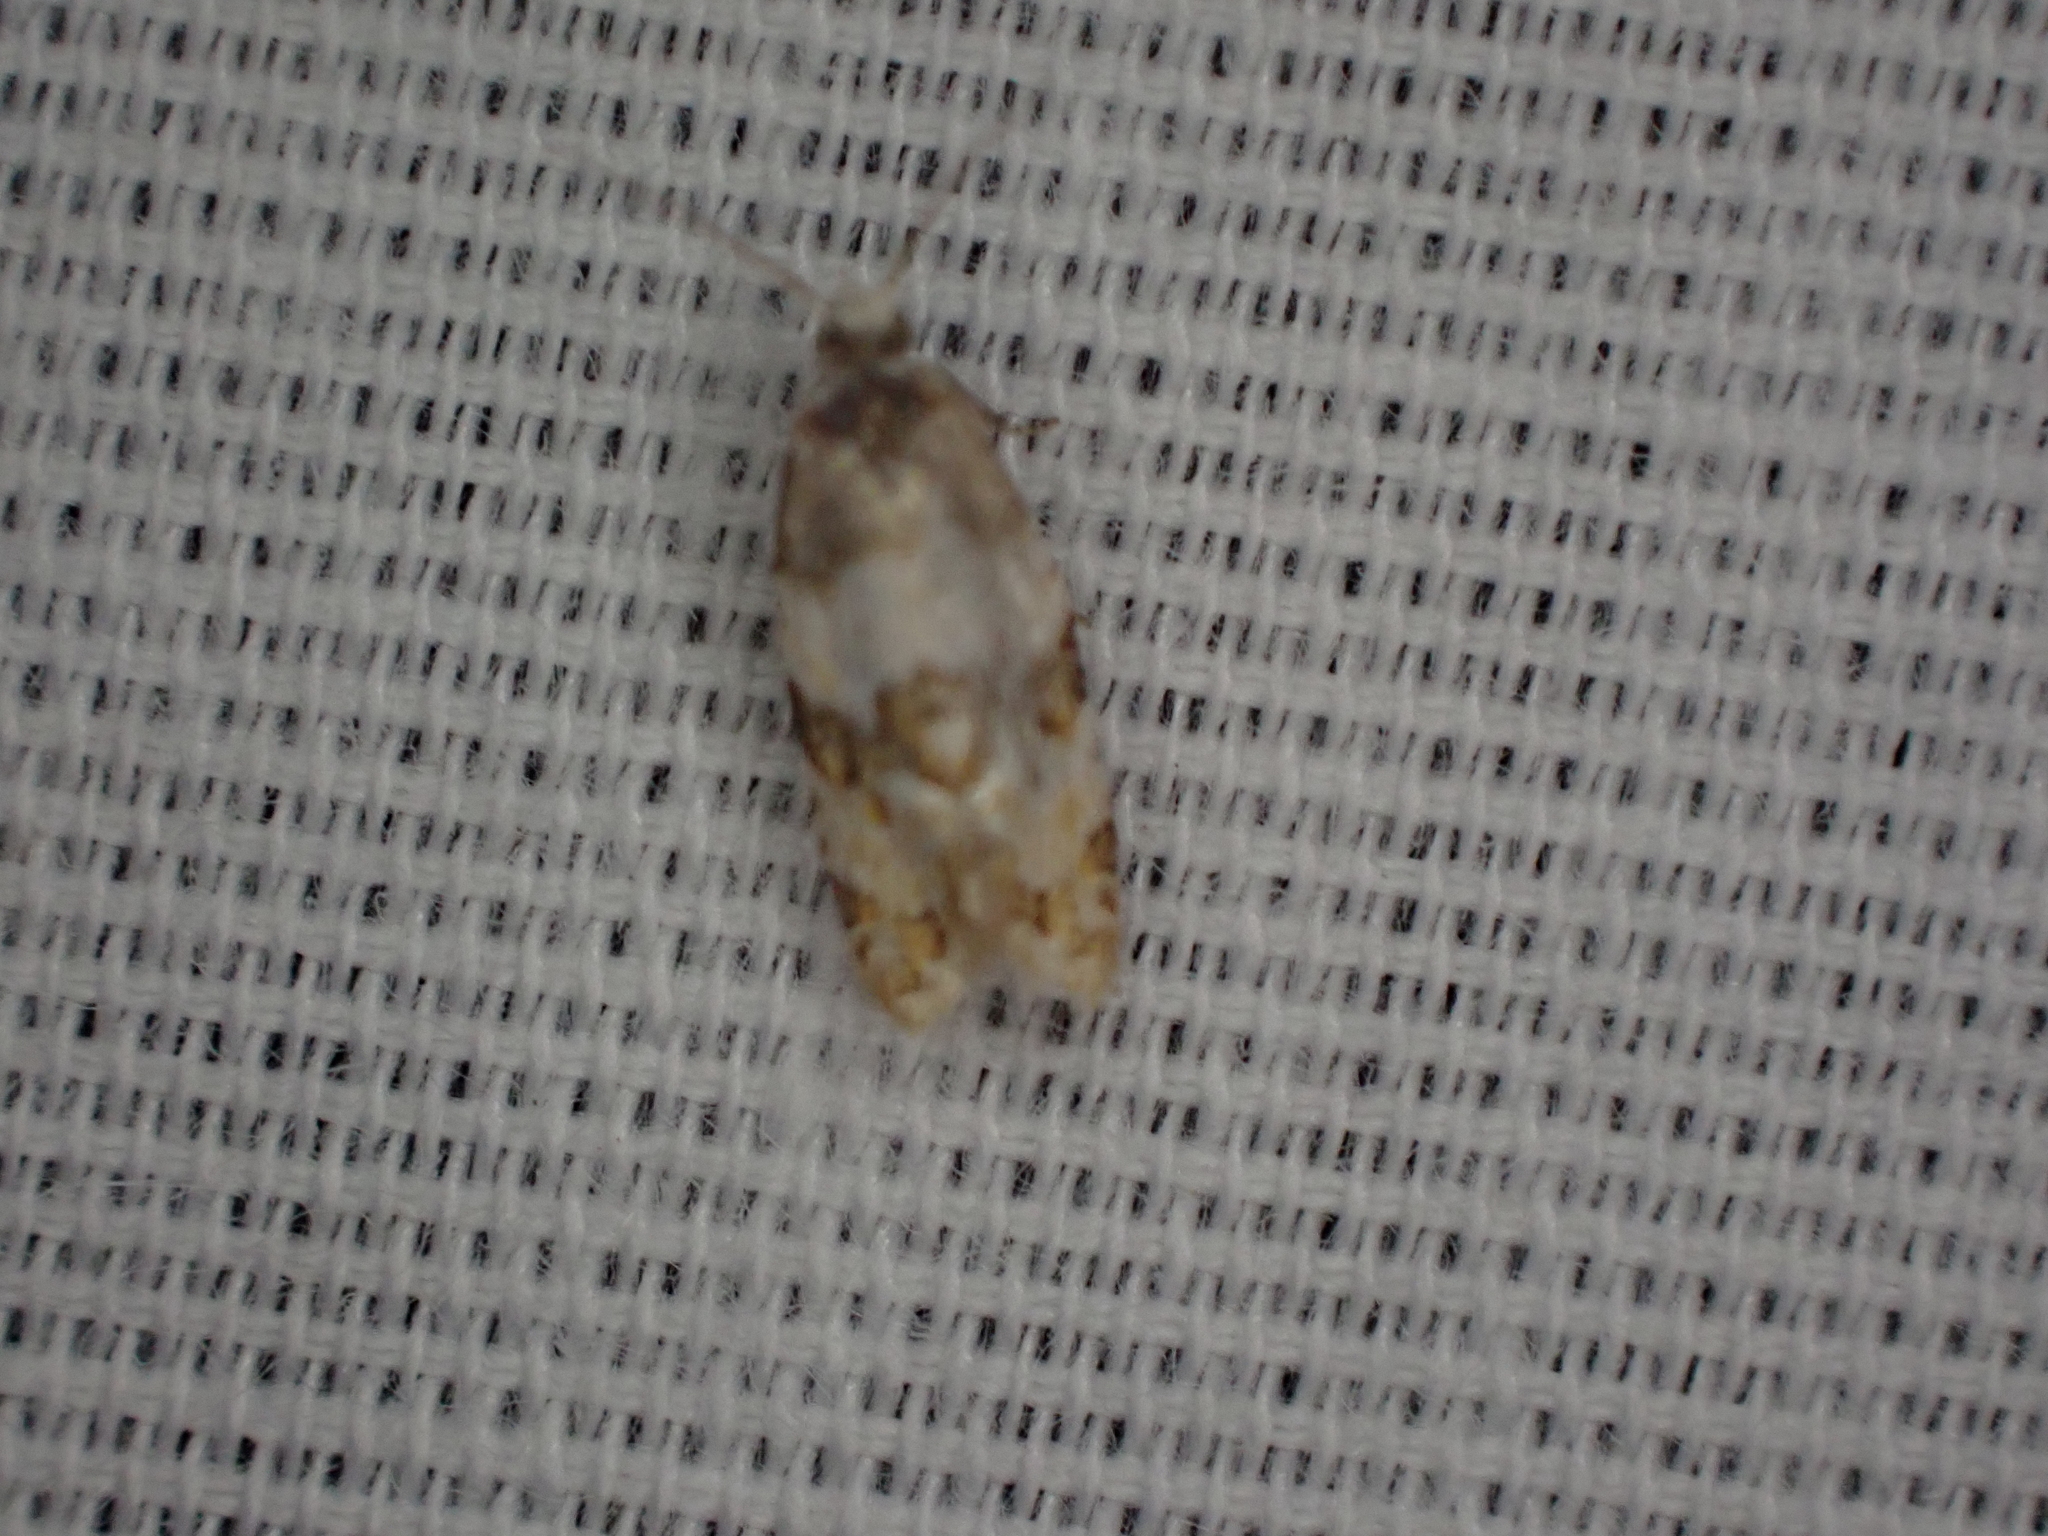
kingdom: Animalia
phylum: Arthropoda
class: Insecta
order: Lepidoptera
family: Tortricidae
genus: Aethes
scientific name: Aethes argentilimitana
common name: Silver-bordered aethes
